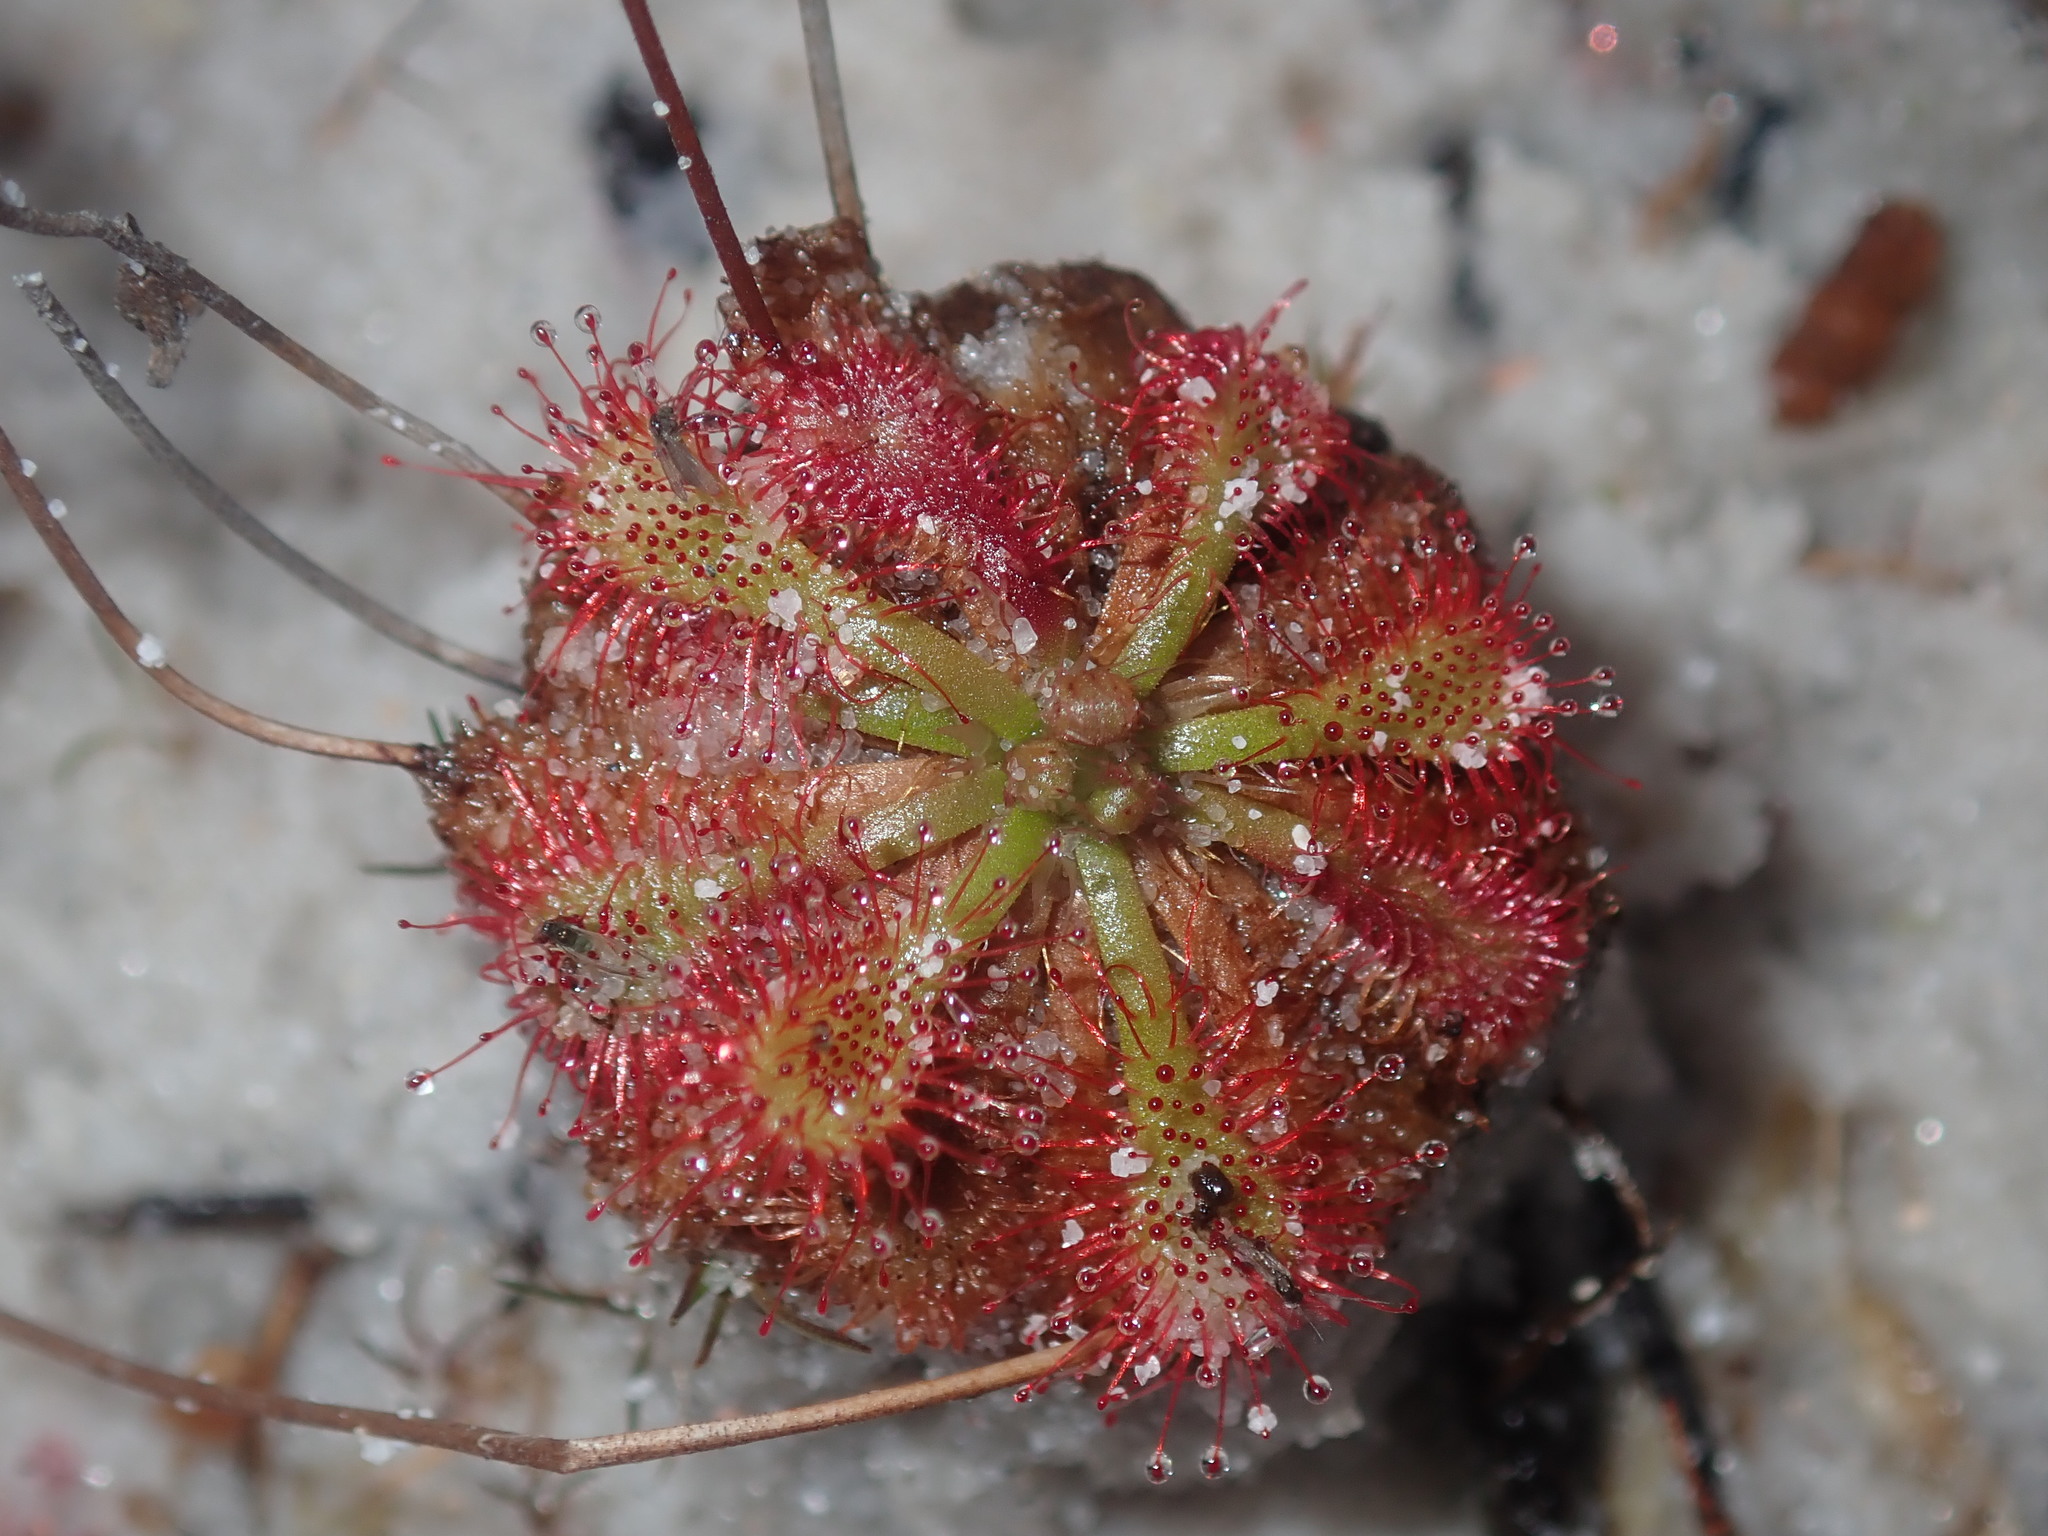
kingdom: Plantae
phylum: Tracheophyta
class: Magnoliopsida
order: Caryophyllales
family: Droseraceae
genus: Drosera
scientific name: Drosera spatulata
